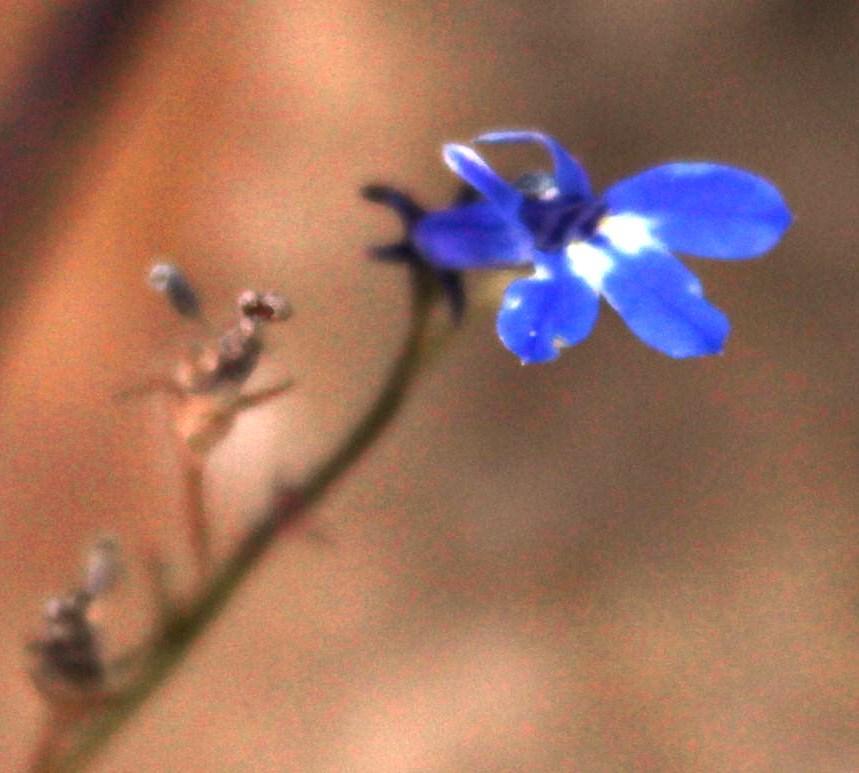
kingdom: Plantae
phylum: Tracheophyta
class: Magnoliopsida
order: Asterales
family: Campanulaceae
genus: Lobelia
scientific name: Lobelia flaccida
